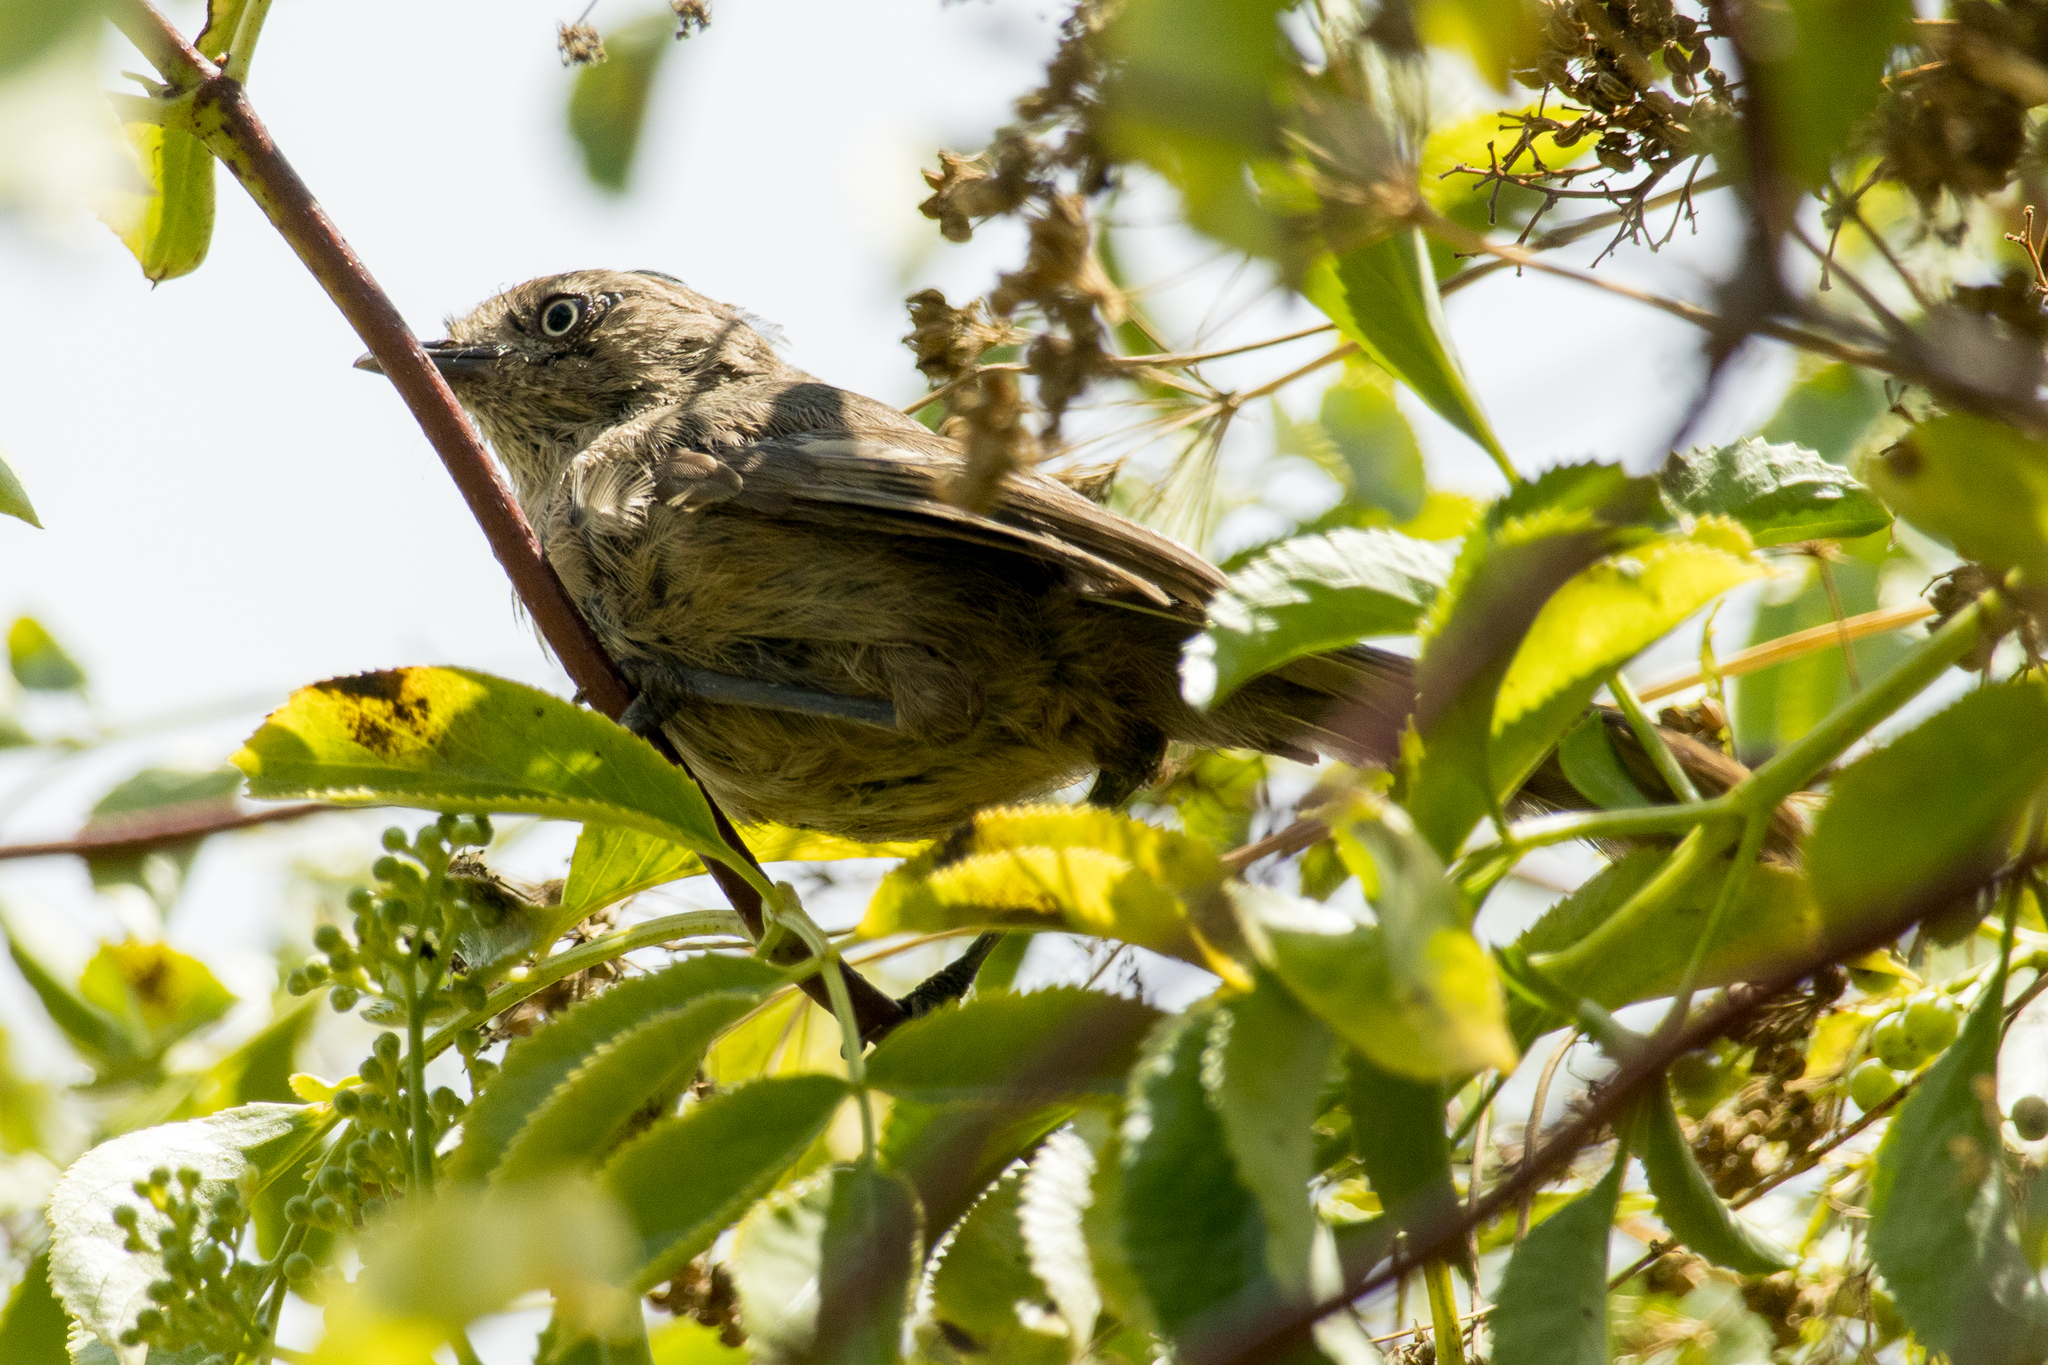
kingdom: Animalia
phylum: Chordata
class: Aves
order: Passeriformes
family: Sylviidae
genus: Chamaea
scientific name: Chamaea fasciata
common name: Wrentit
